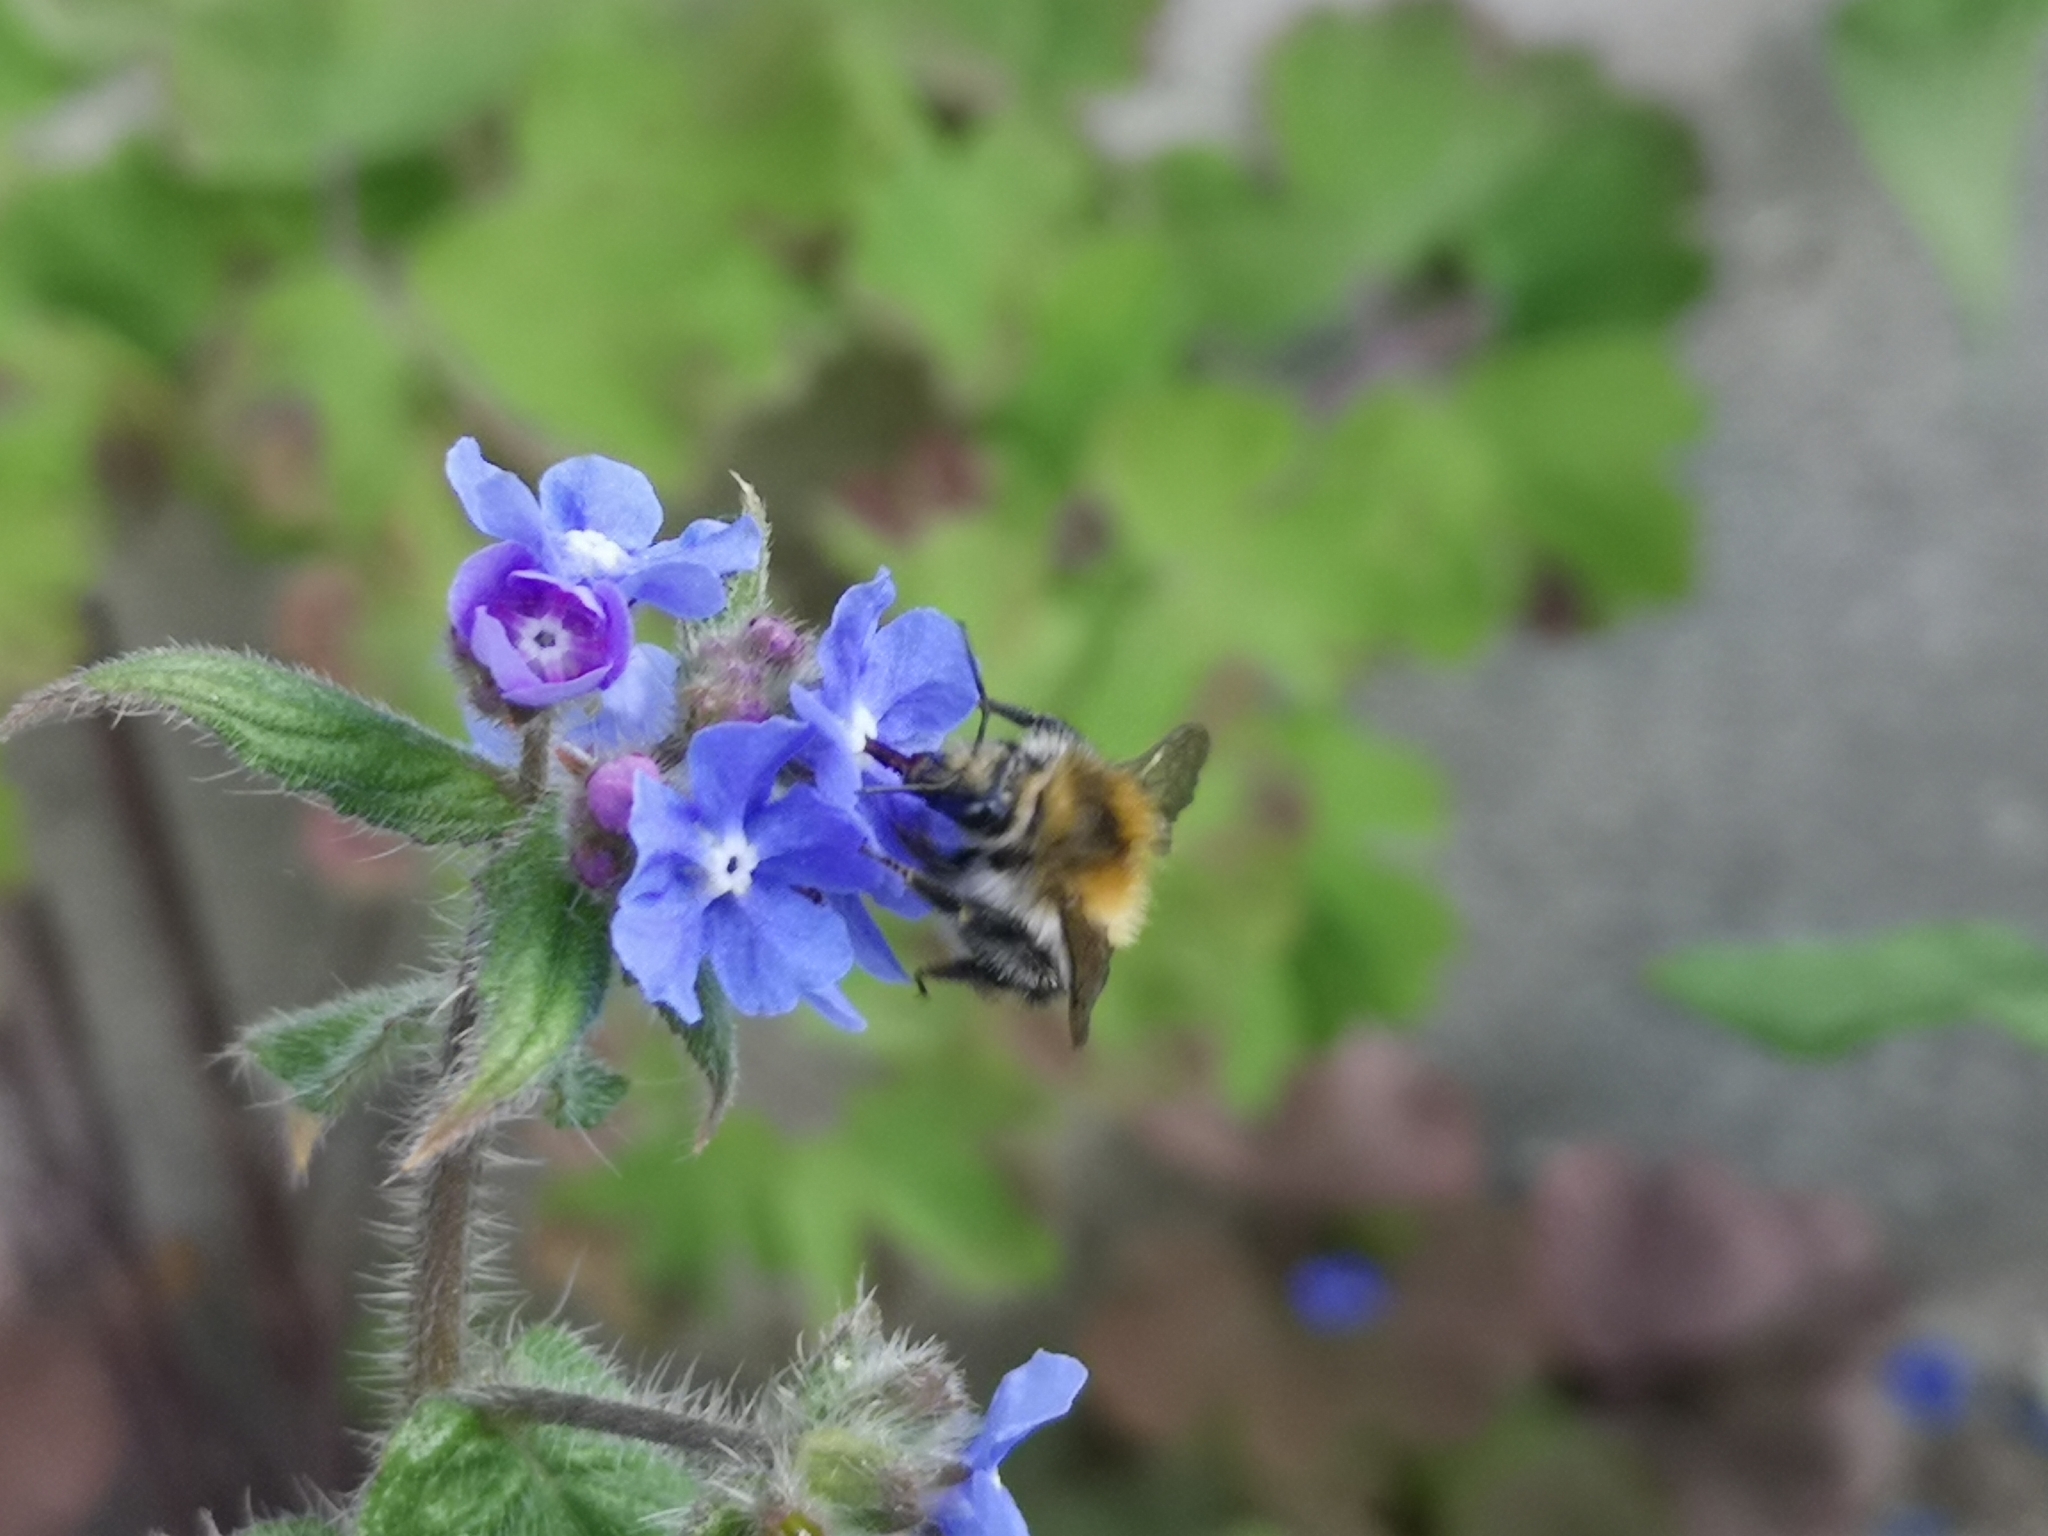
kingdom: Animalia
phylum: Arthropoda
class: Insecta
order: Hymenoptera
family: Apidae
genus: Bombus
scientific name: Bombus pascuorum
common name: Common carder bee
